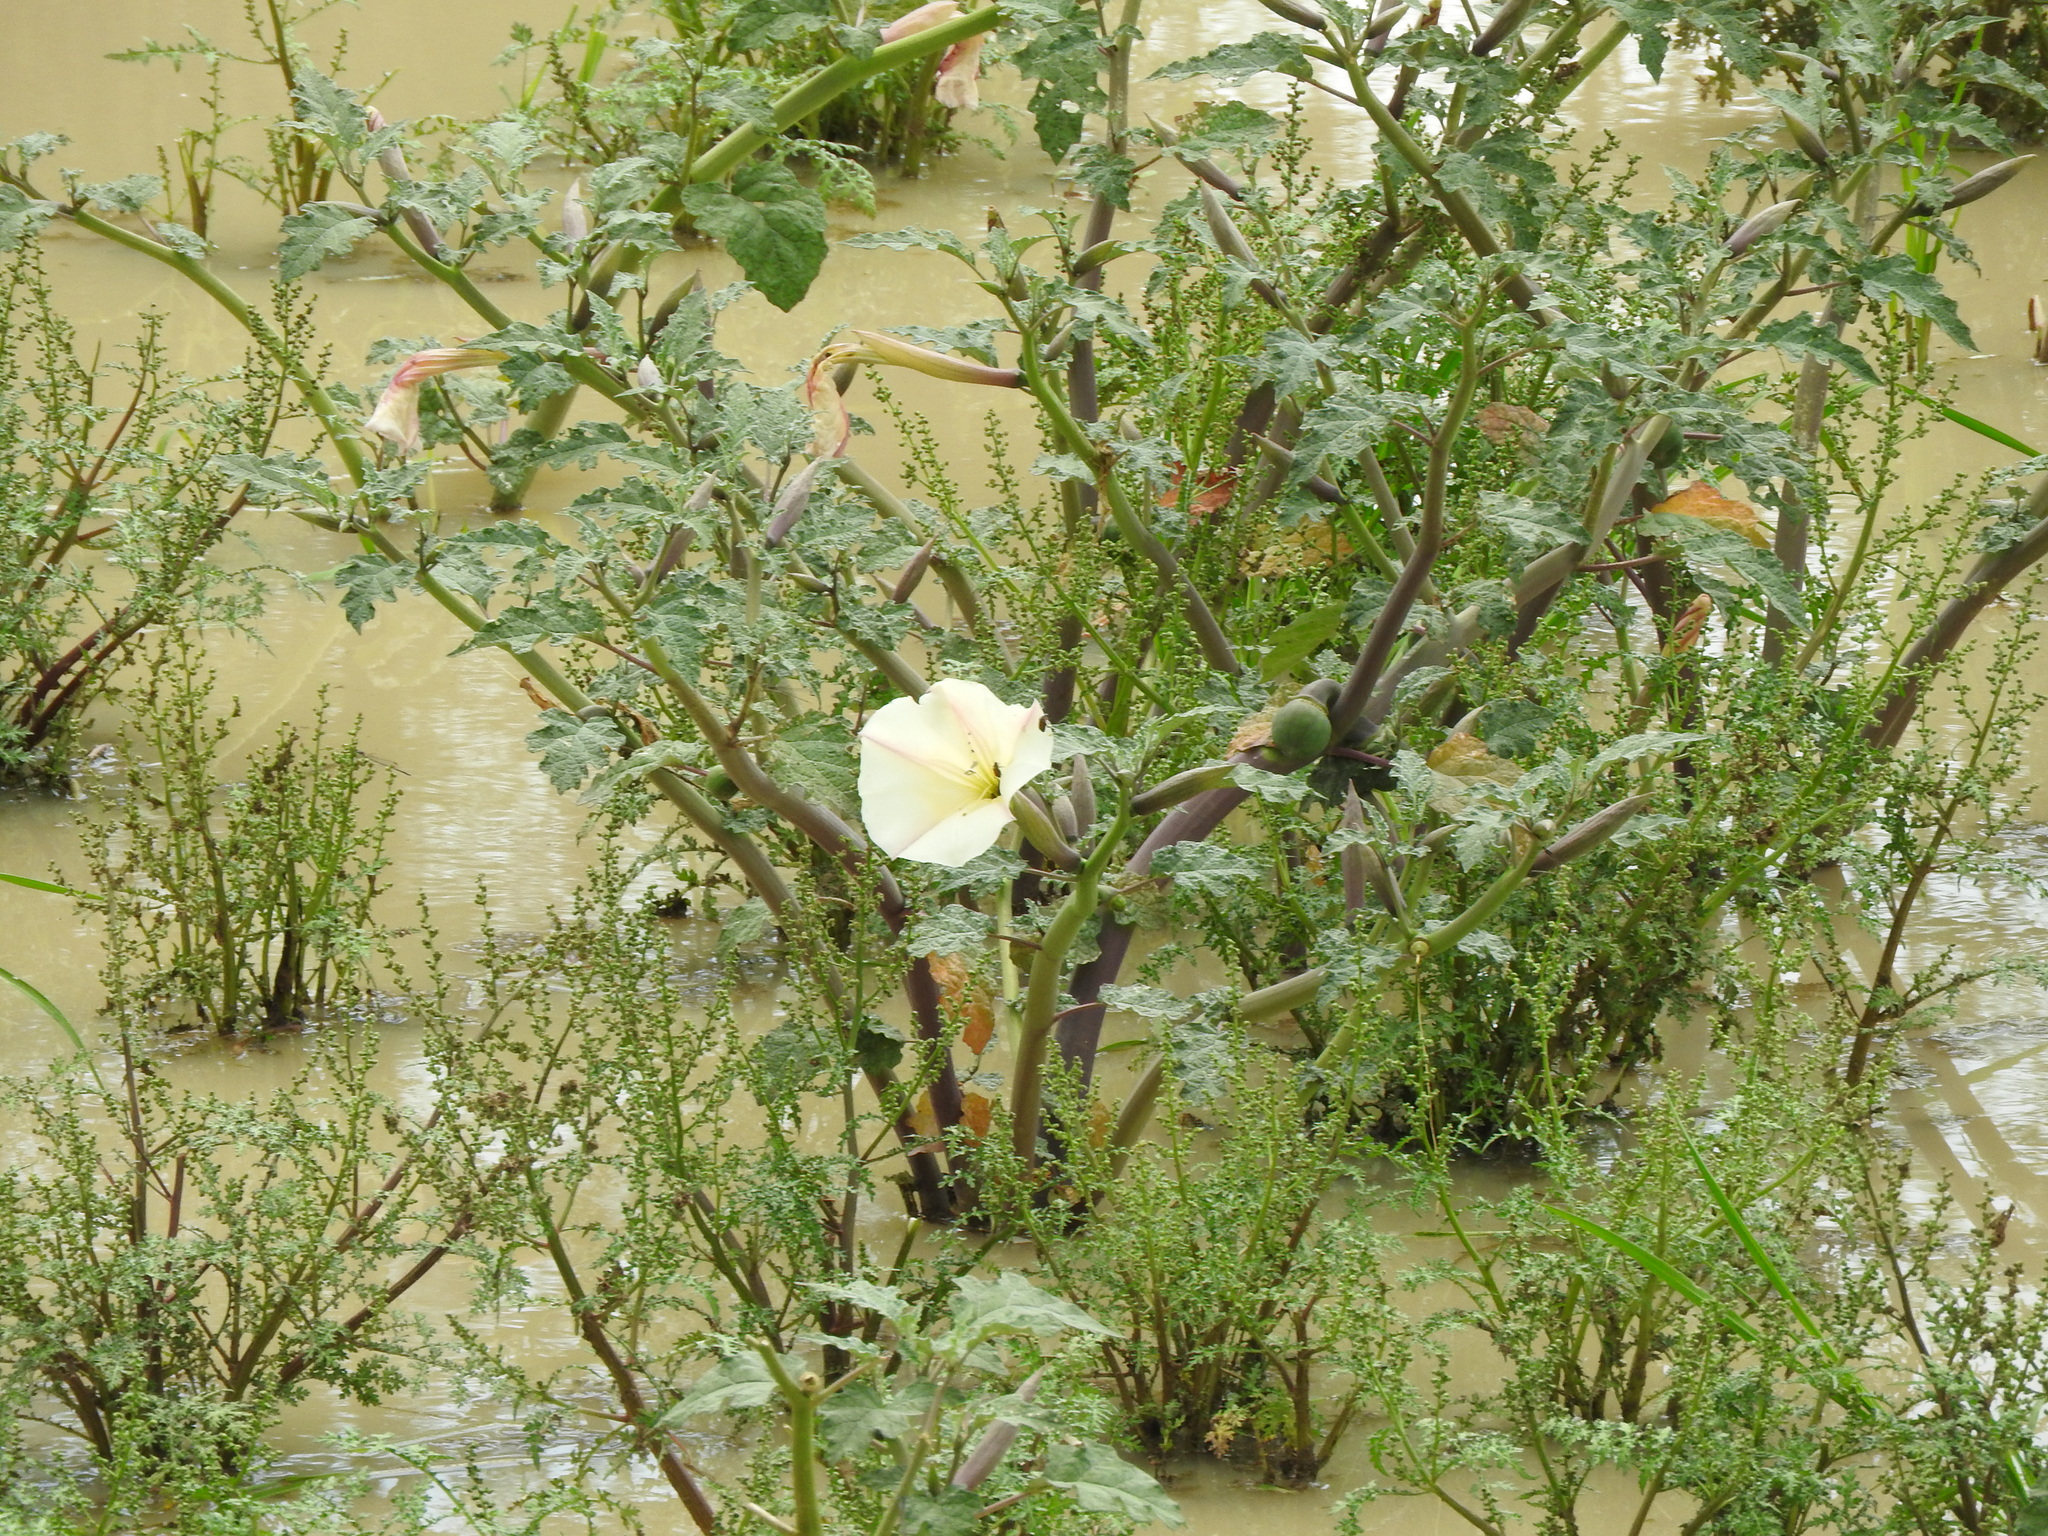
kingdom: Plantae
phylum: Tracheophyta
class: Magnoliopsida
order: Solanales
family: Solanaceae
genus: Datura
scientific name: Datura ceratocaula
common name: Latin thorn-apple
